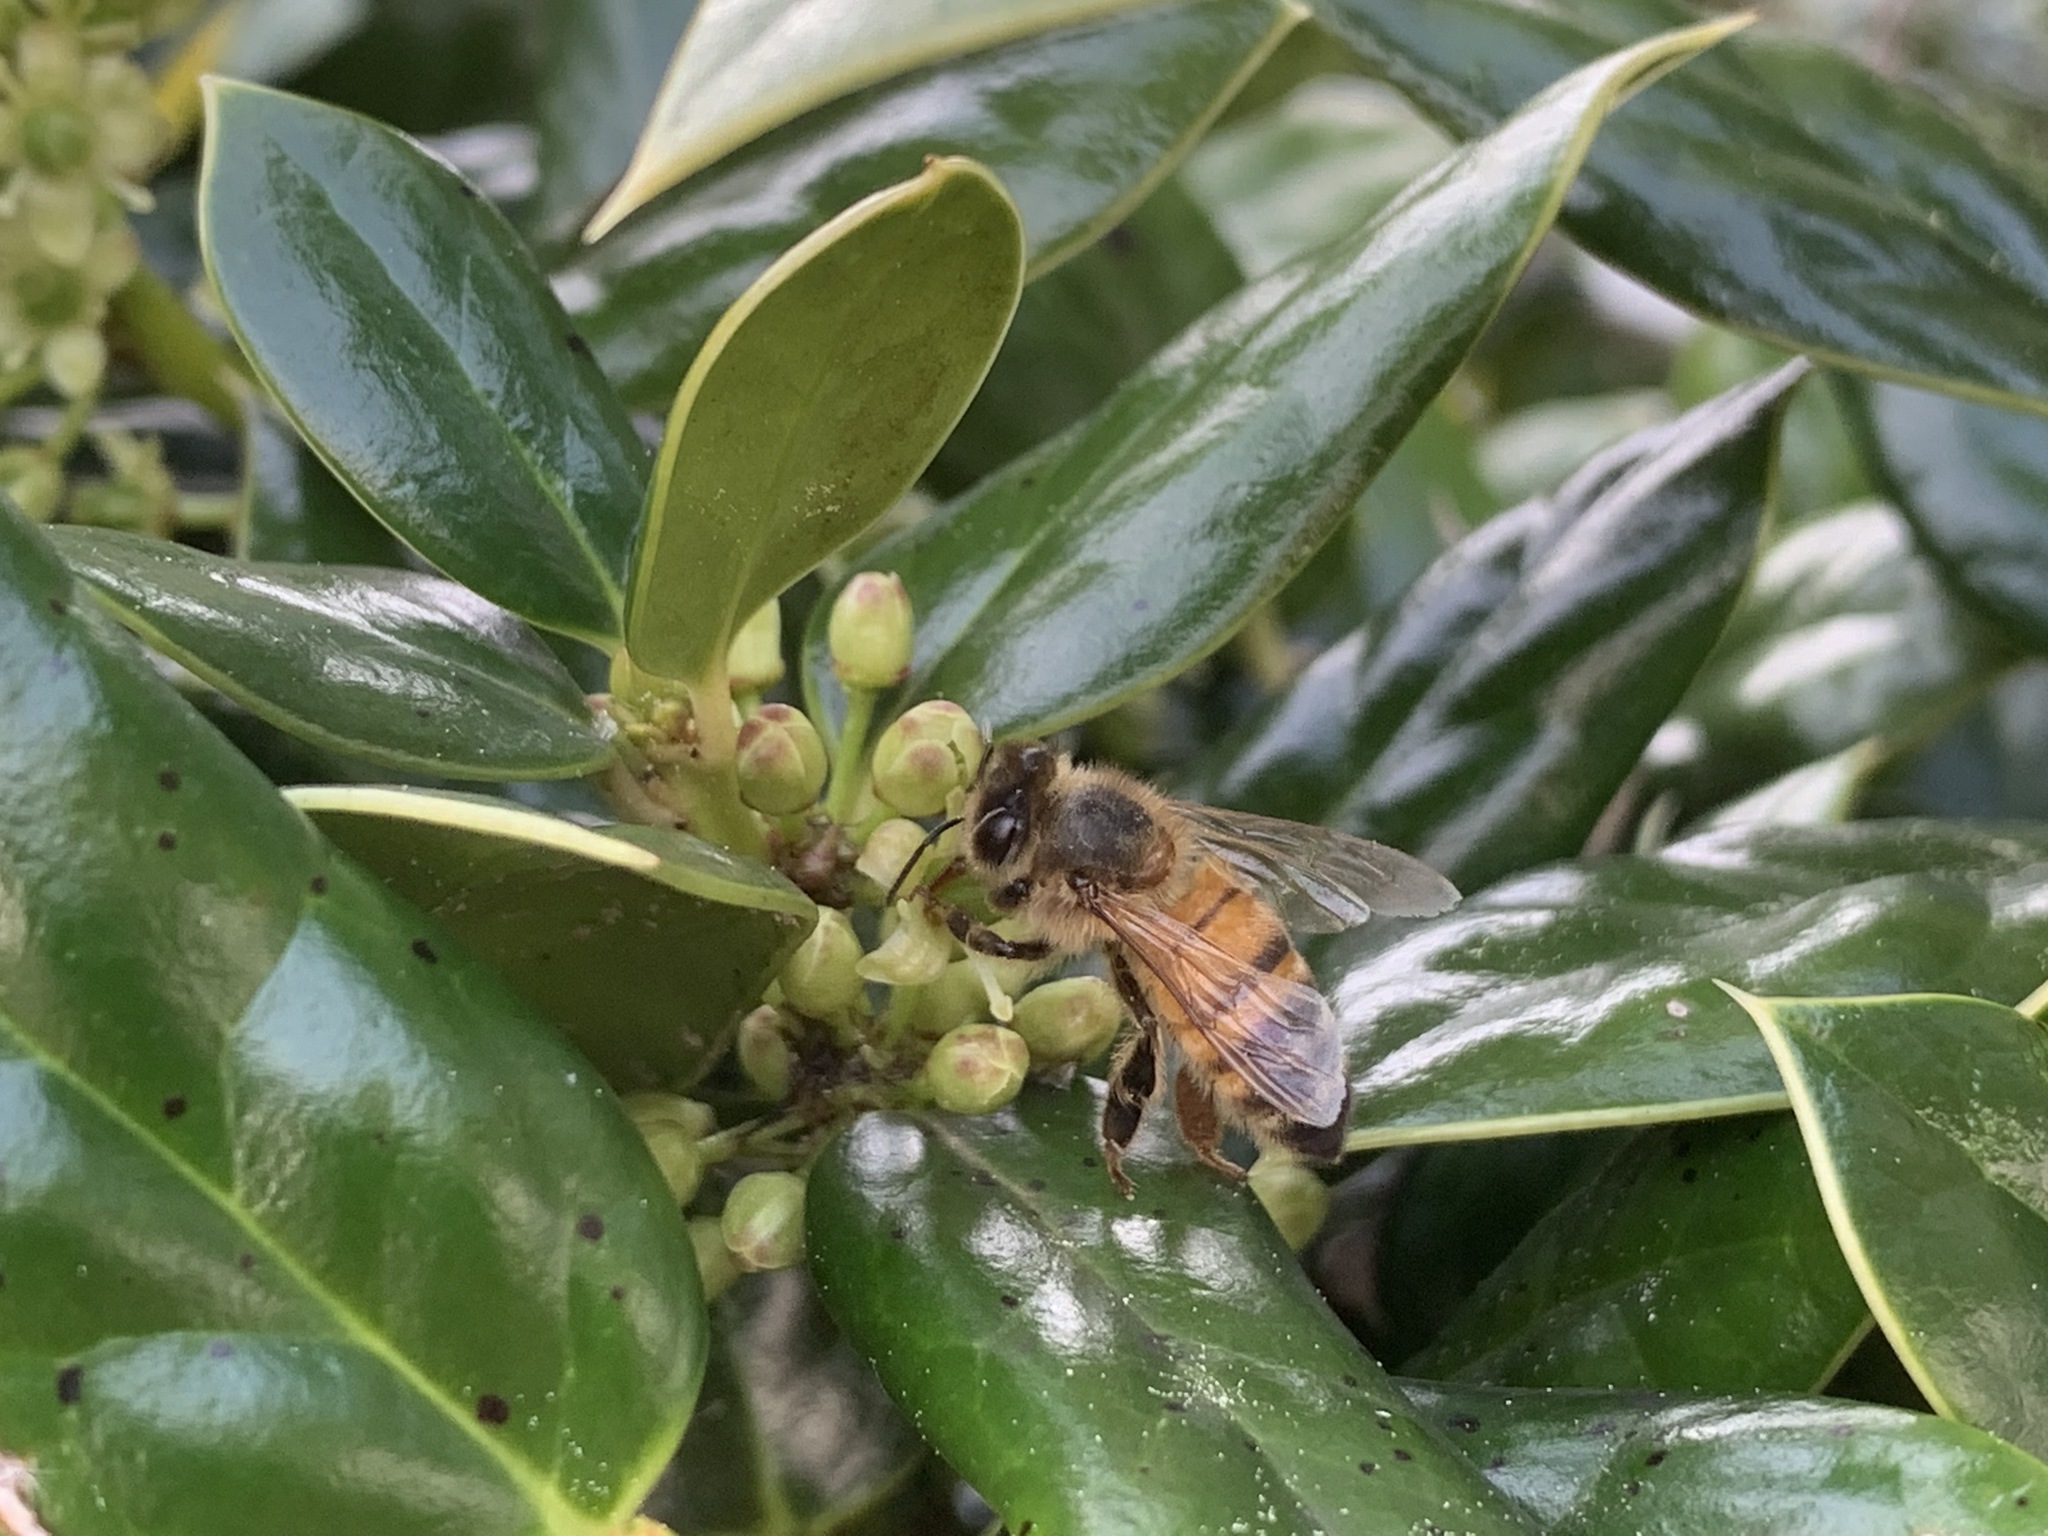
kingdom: Animalia
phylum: Arthropoda
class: Insecta
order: Hymenoptera
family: Apidae
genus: Apis
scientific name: Apis mellifera
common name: Honey bee
